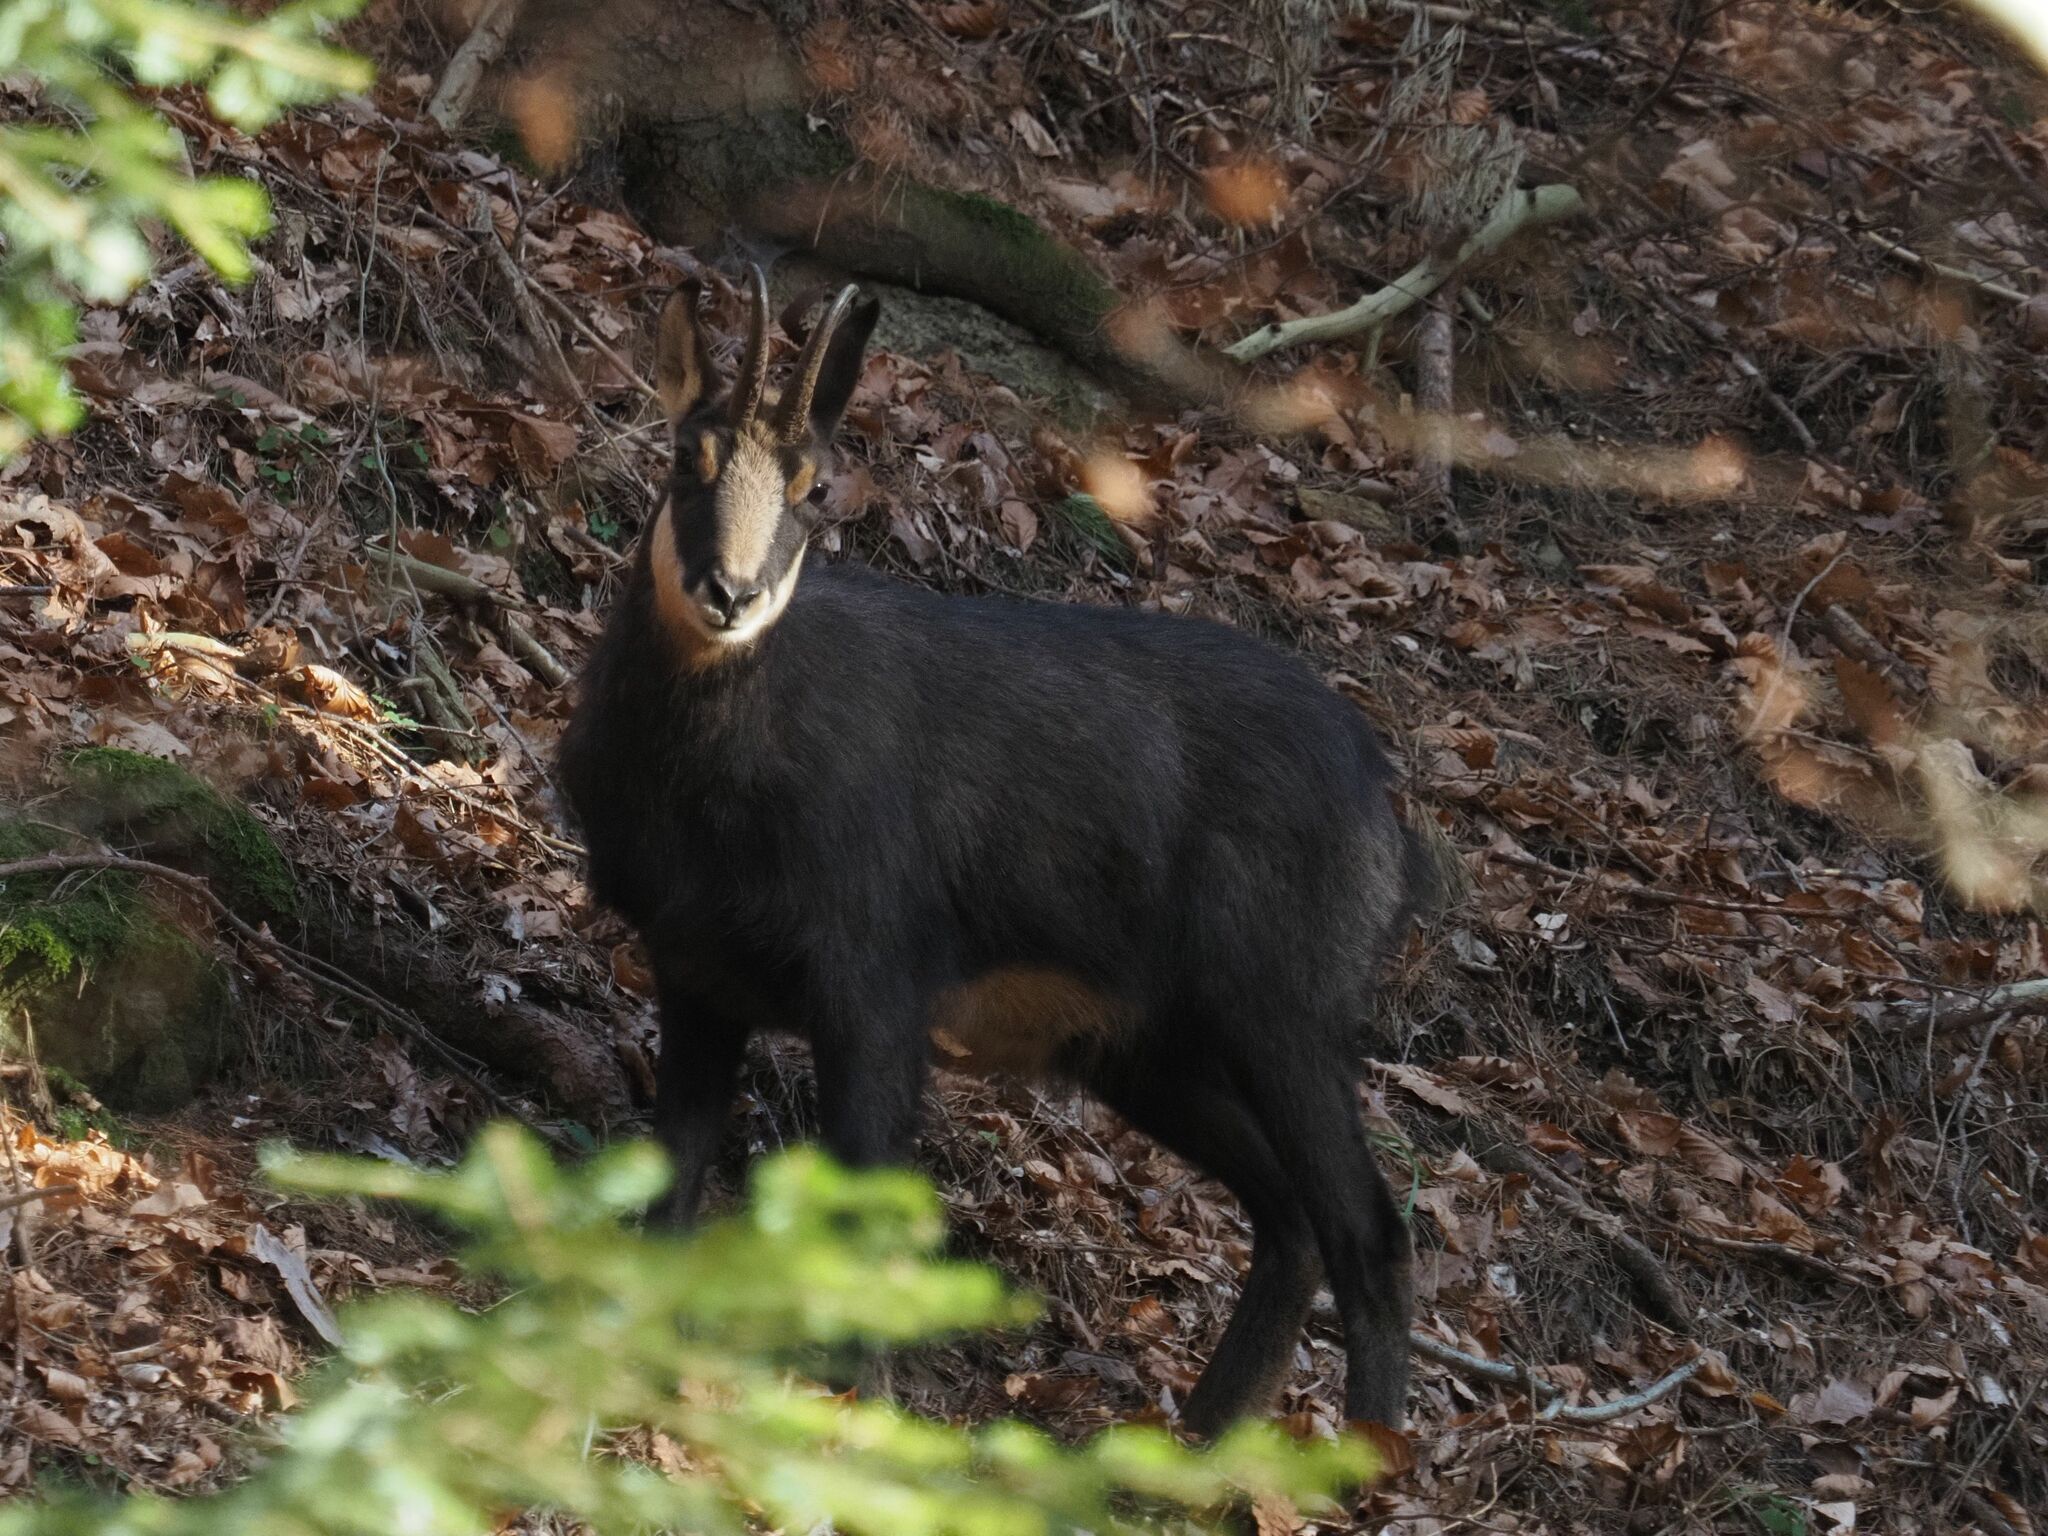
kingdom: Animalia
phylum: Chordata
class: Mammalia
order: Artiodactyla
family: Bovidae
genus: Rupicapra
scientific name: Rupicapra rupicapra
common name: Chamois
